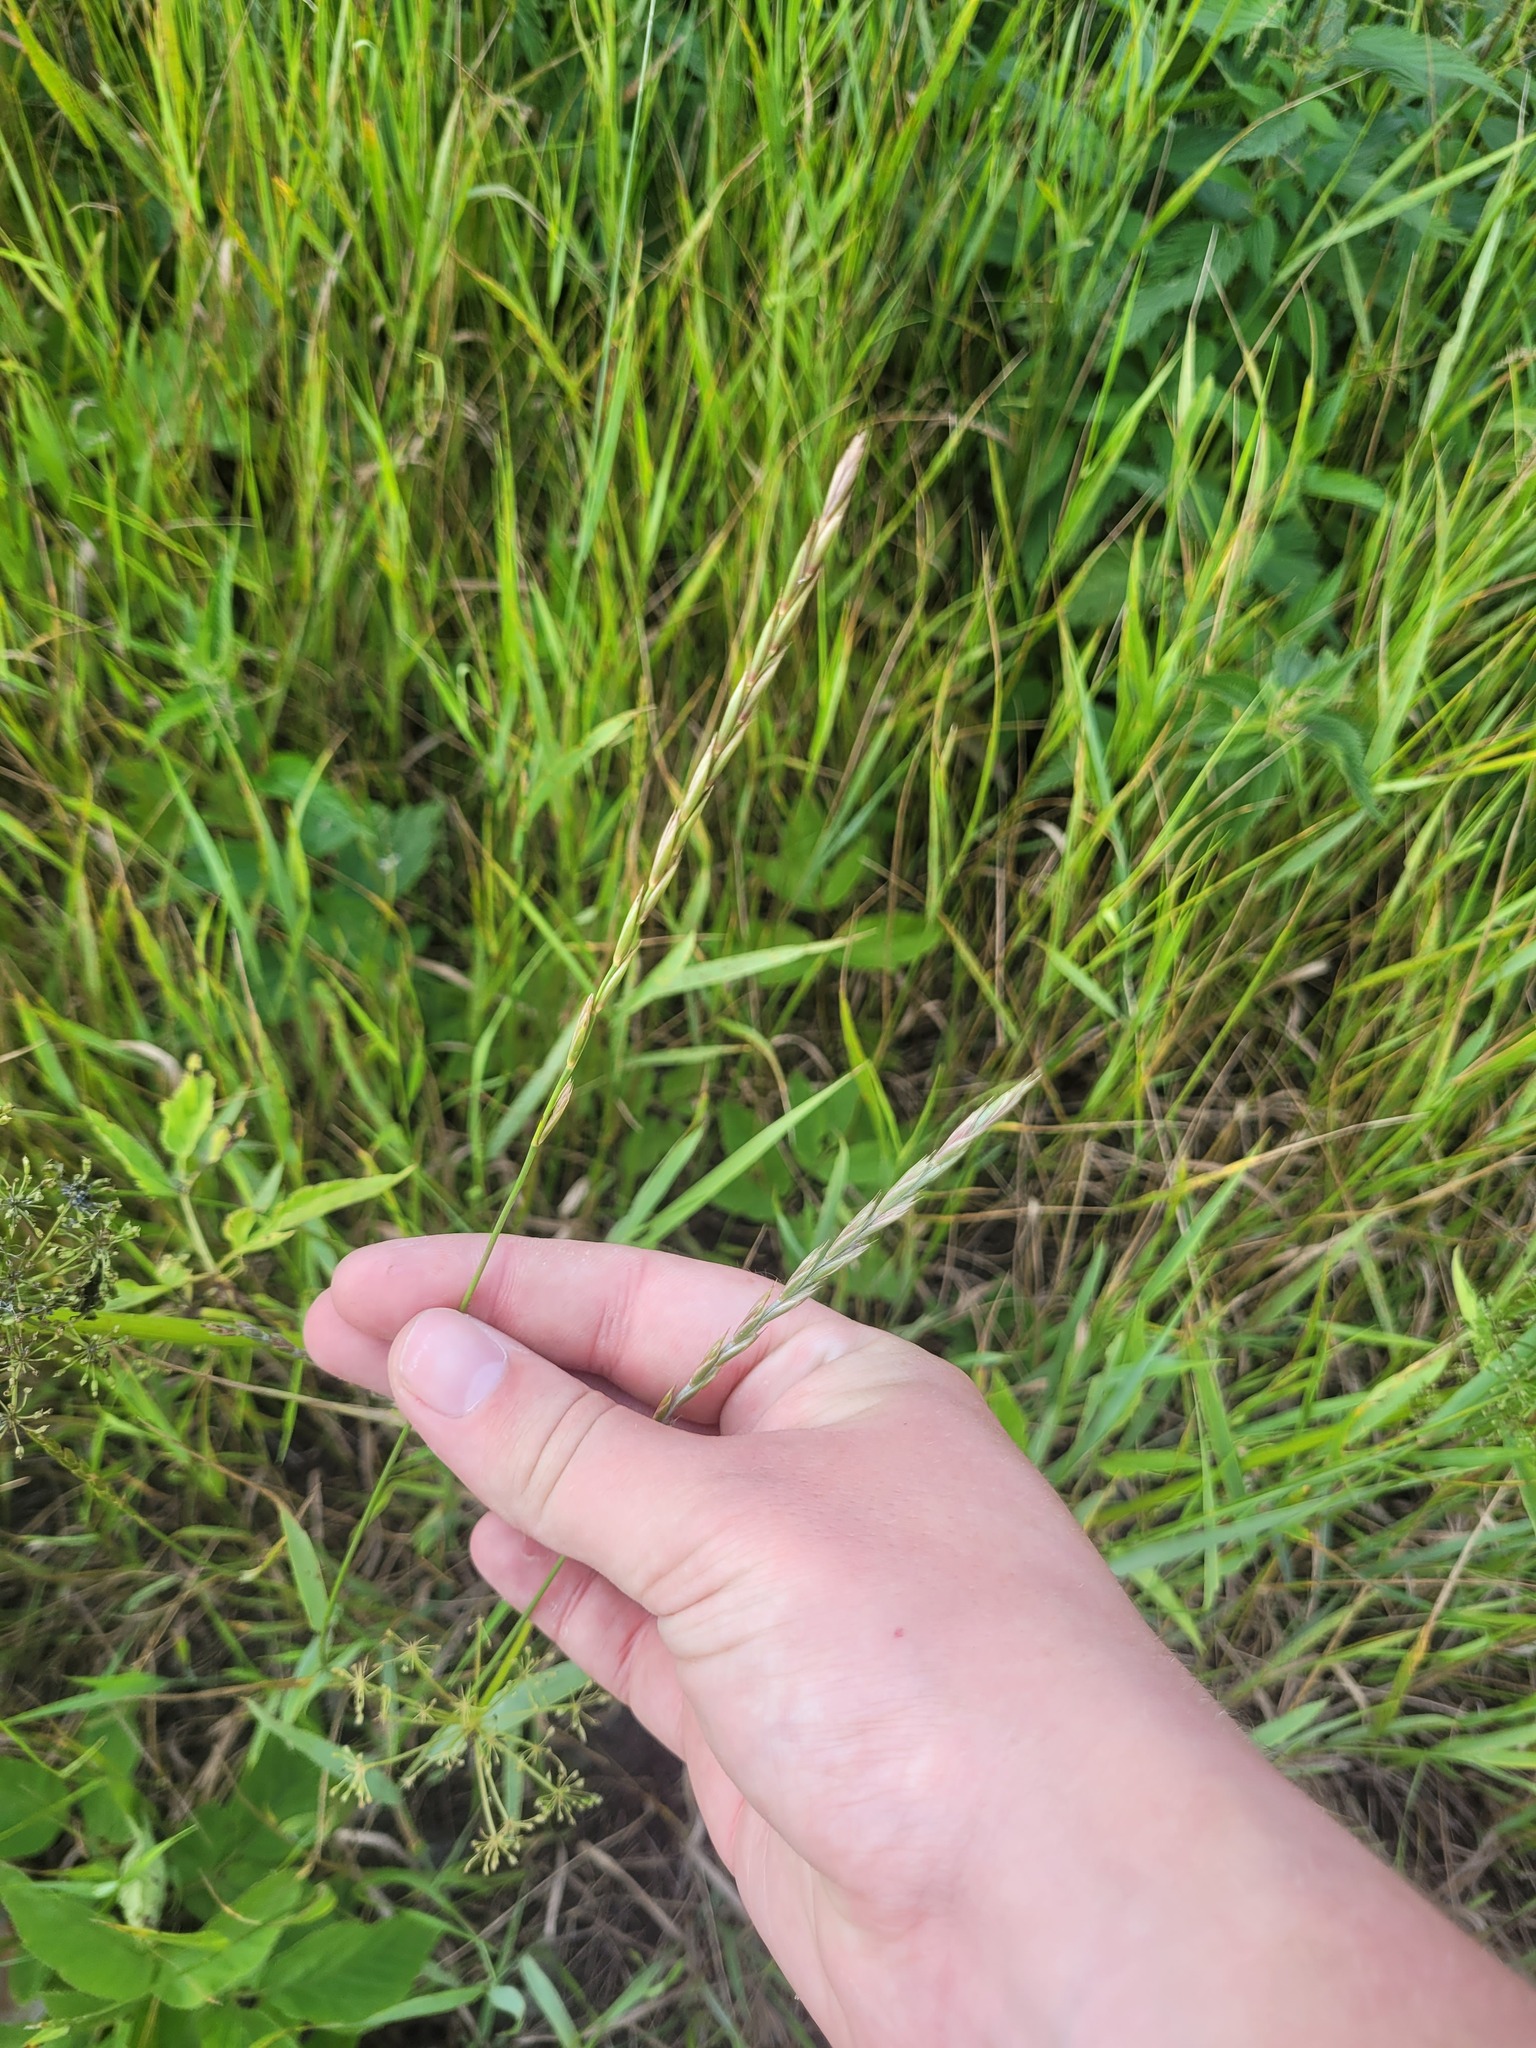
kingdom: Plantae
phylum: Tracheophyta
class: Liliopsida
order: Poales
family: Poaceae
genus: Elymus
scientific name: Elymus repens
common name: Quackgrass
